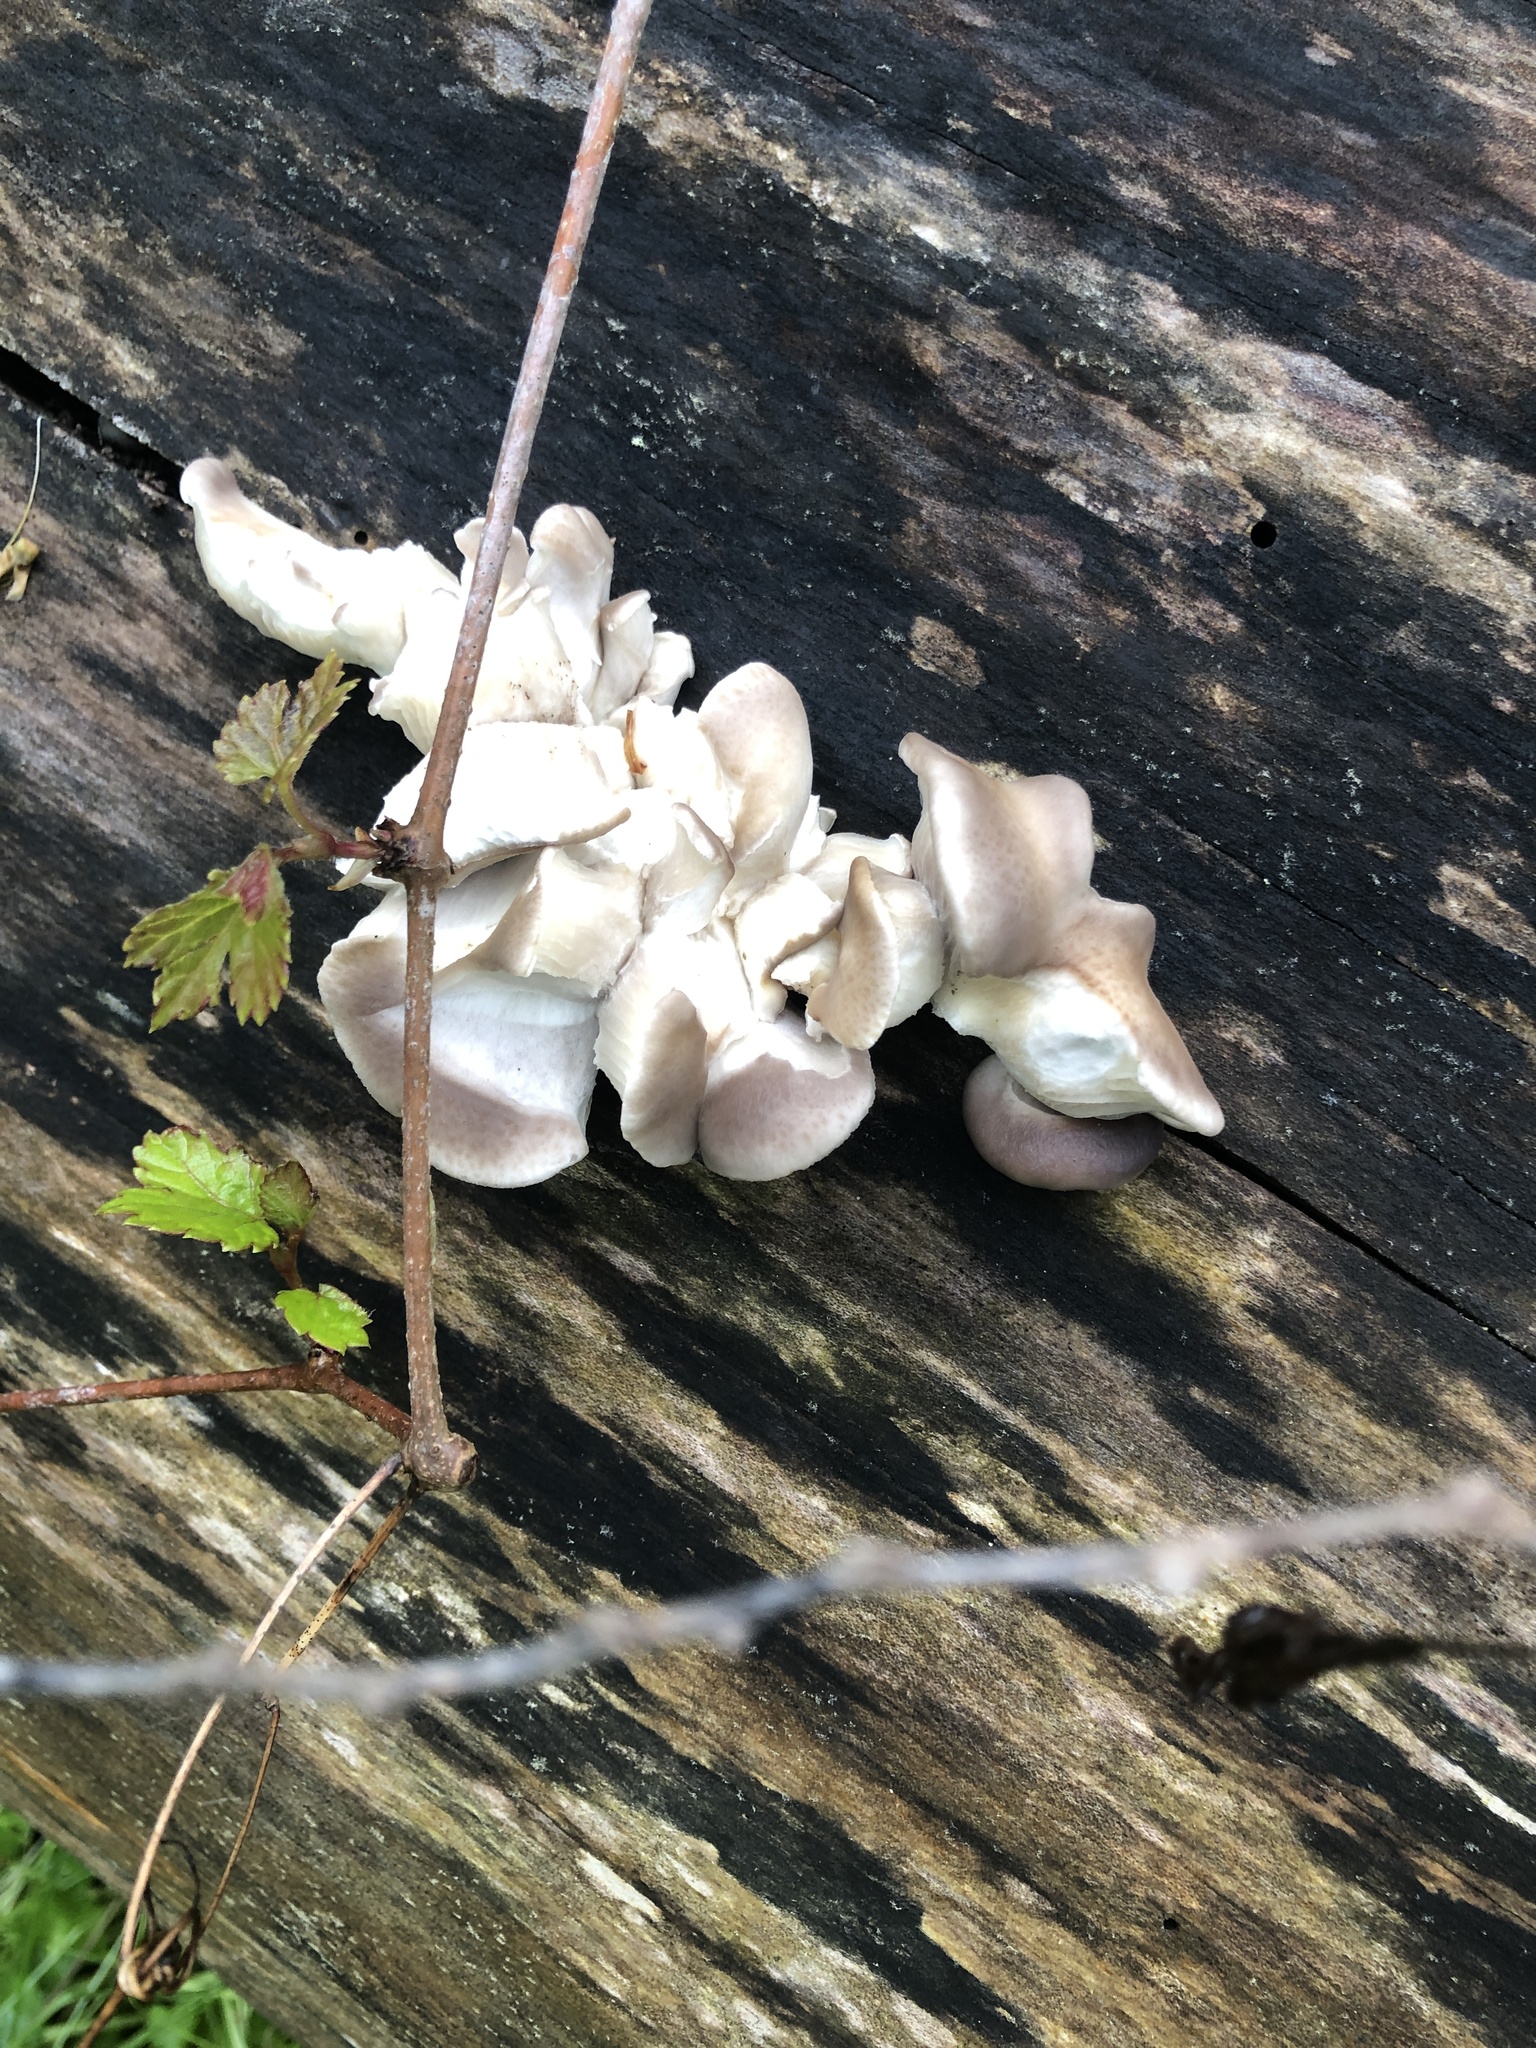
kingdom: Fungi
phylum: Basidiomycota
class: Agaricomycetes
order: Agaricales
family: Pleurotaceae
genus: Pleurotus
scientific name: Pleurotus ostreatus
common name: Oyster mushroom
